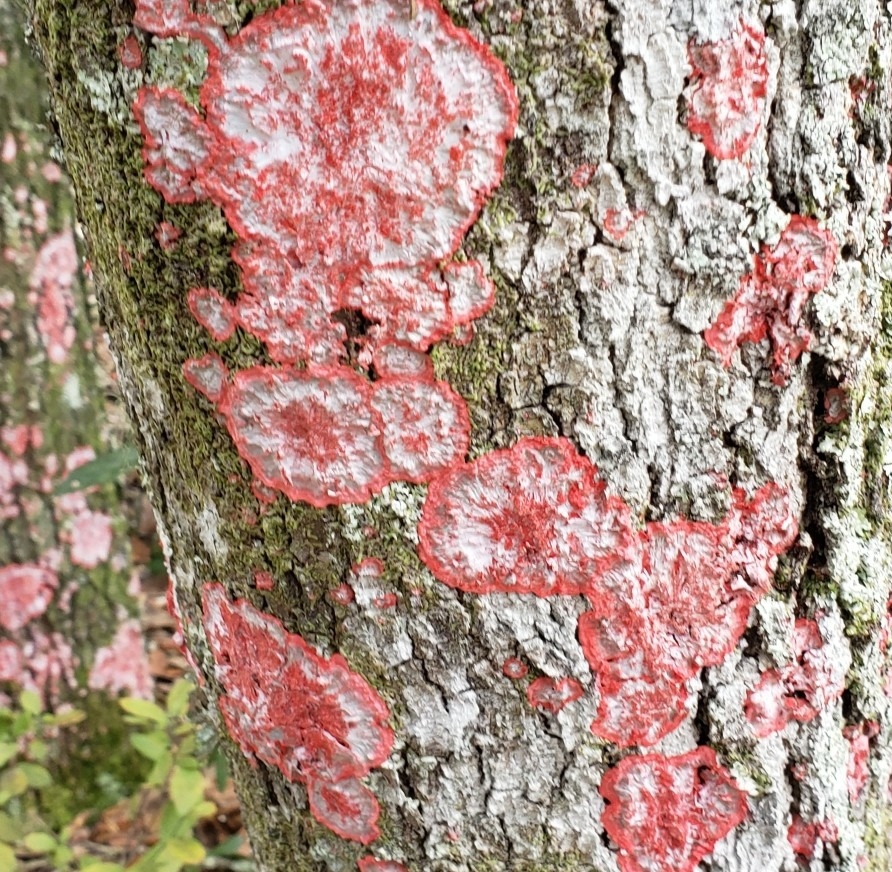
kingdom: Fungi
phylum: Ascomycota
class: Arthoniomycetes
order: Arthoniales
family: Arthoniaceae
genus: Herpothallon
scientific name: Herpothallon rubrocinctum
